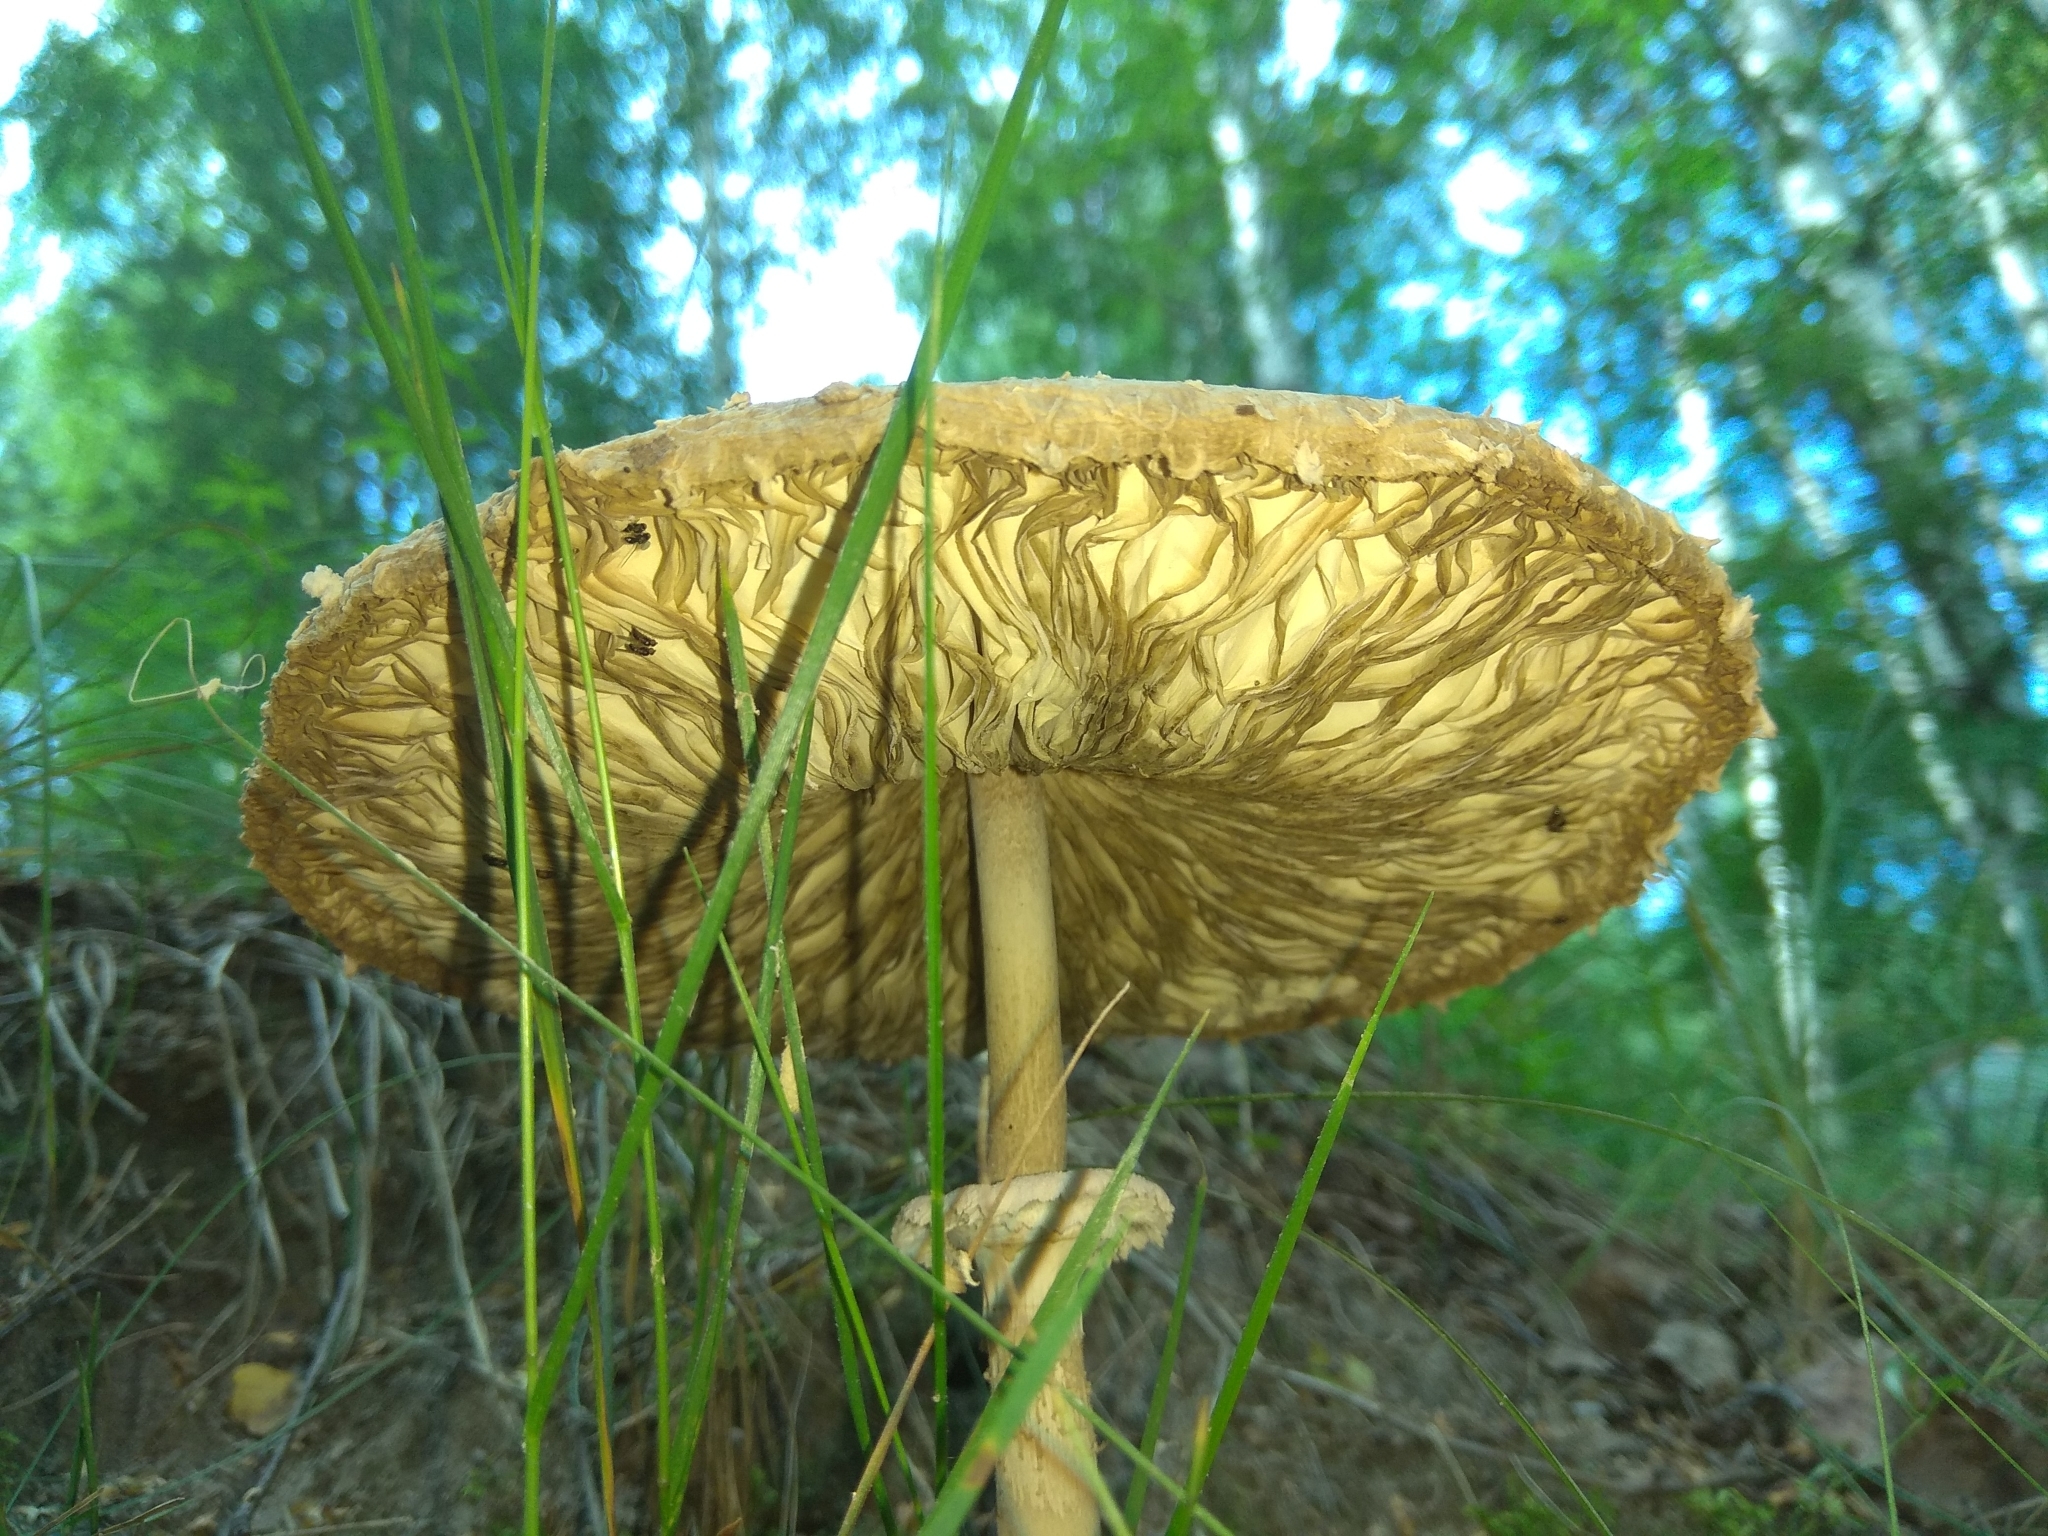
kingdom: Fungi
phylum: Basidiomycota
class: Agaricomycetes
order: Agaricales
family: Agaricaceae
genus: Macrolepiota
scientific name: Macrolepiota procera
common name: Parasol
